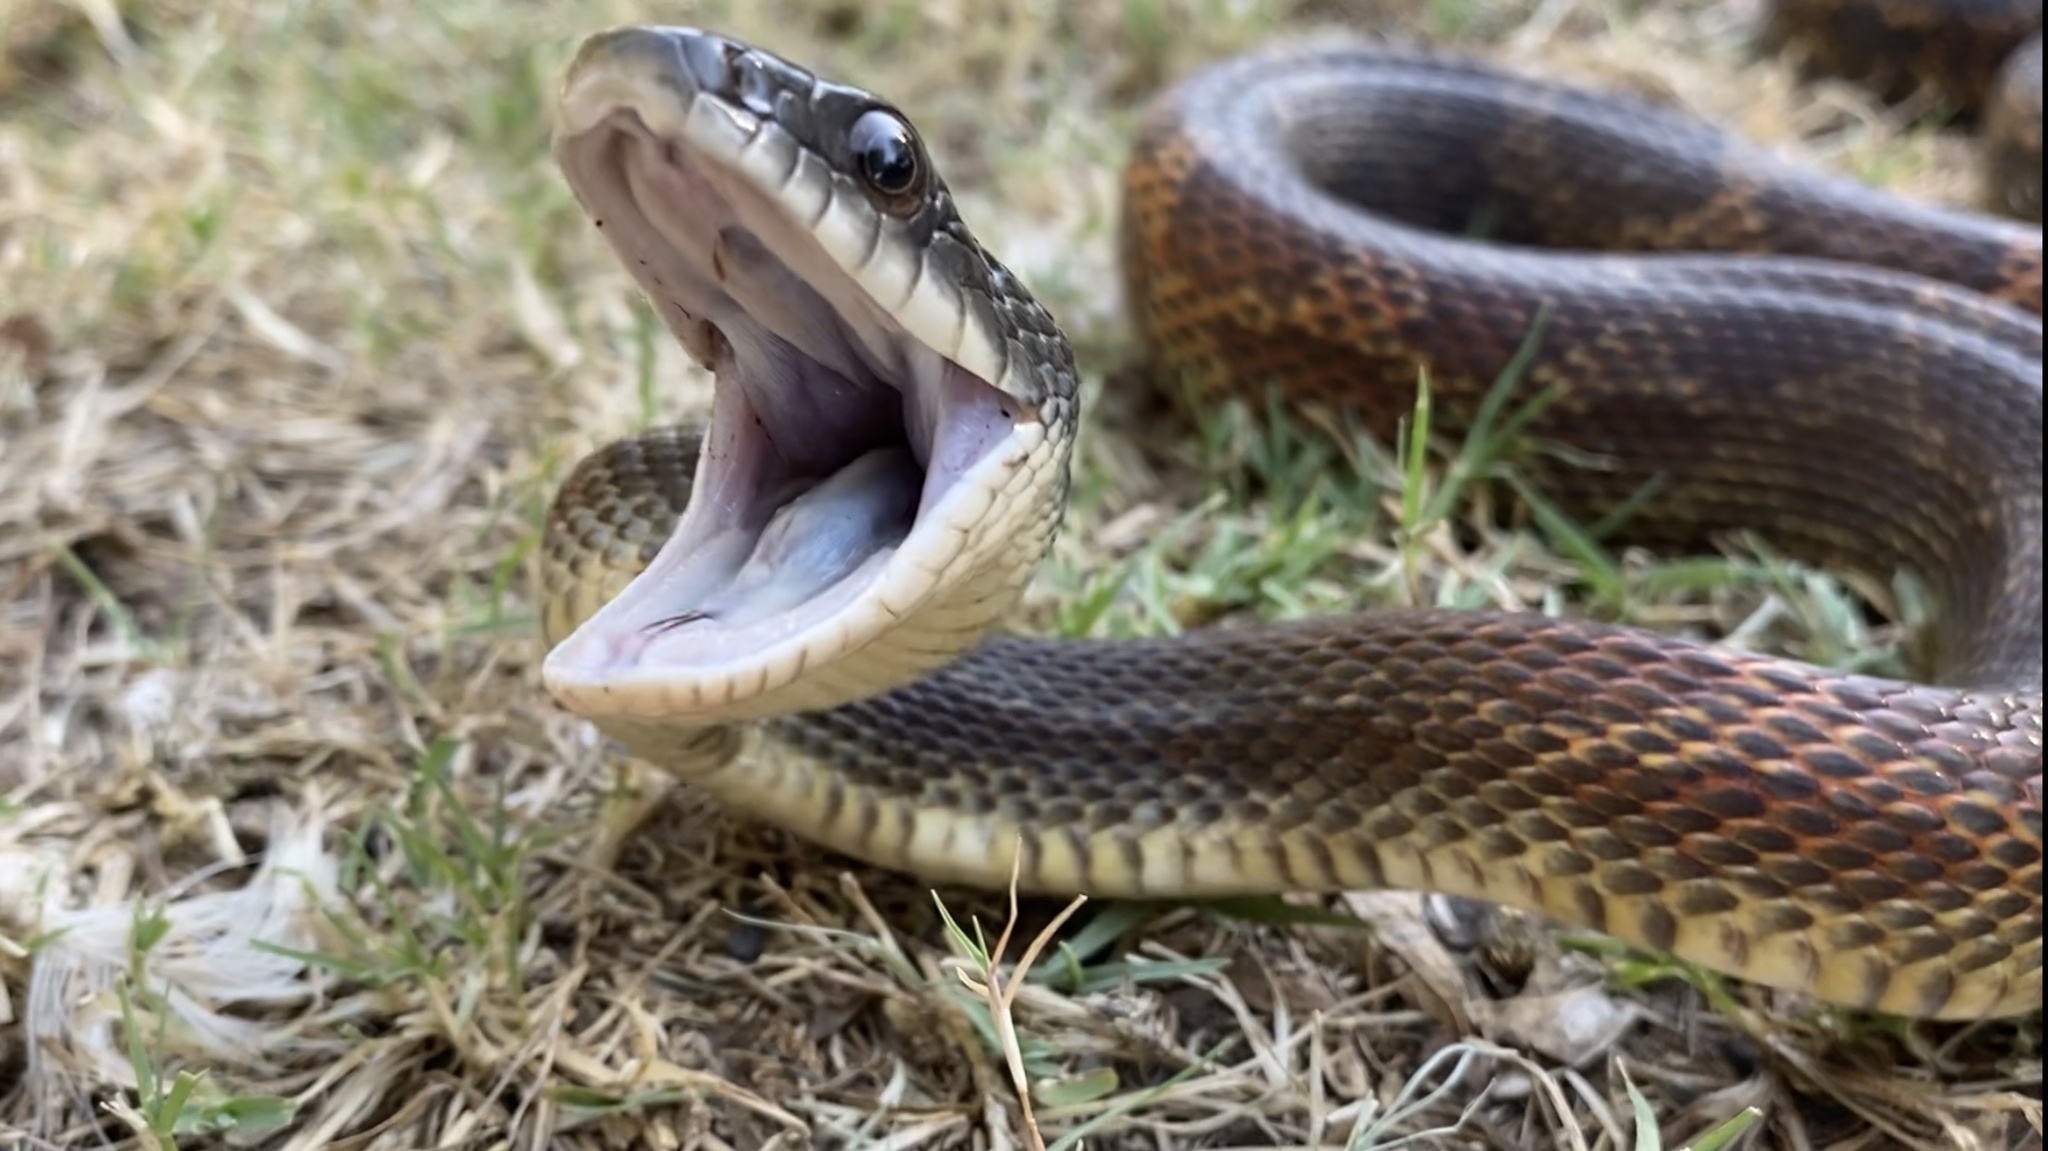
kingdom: Animalia
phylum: Chordata
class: Squamata
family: Colubridae
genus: Pantherophis
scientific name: Pantherophis obsoletus
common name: Black rat snake
